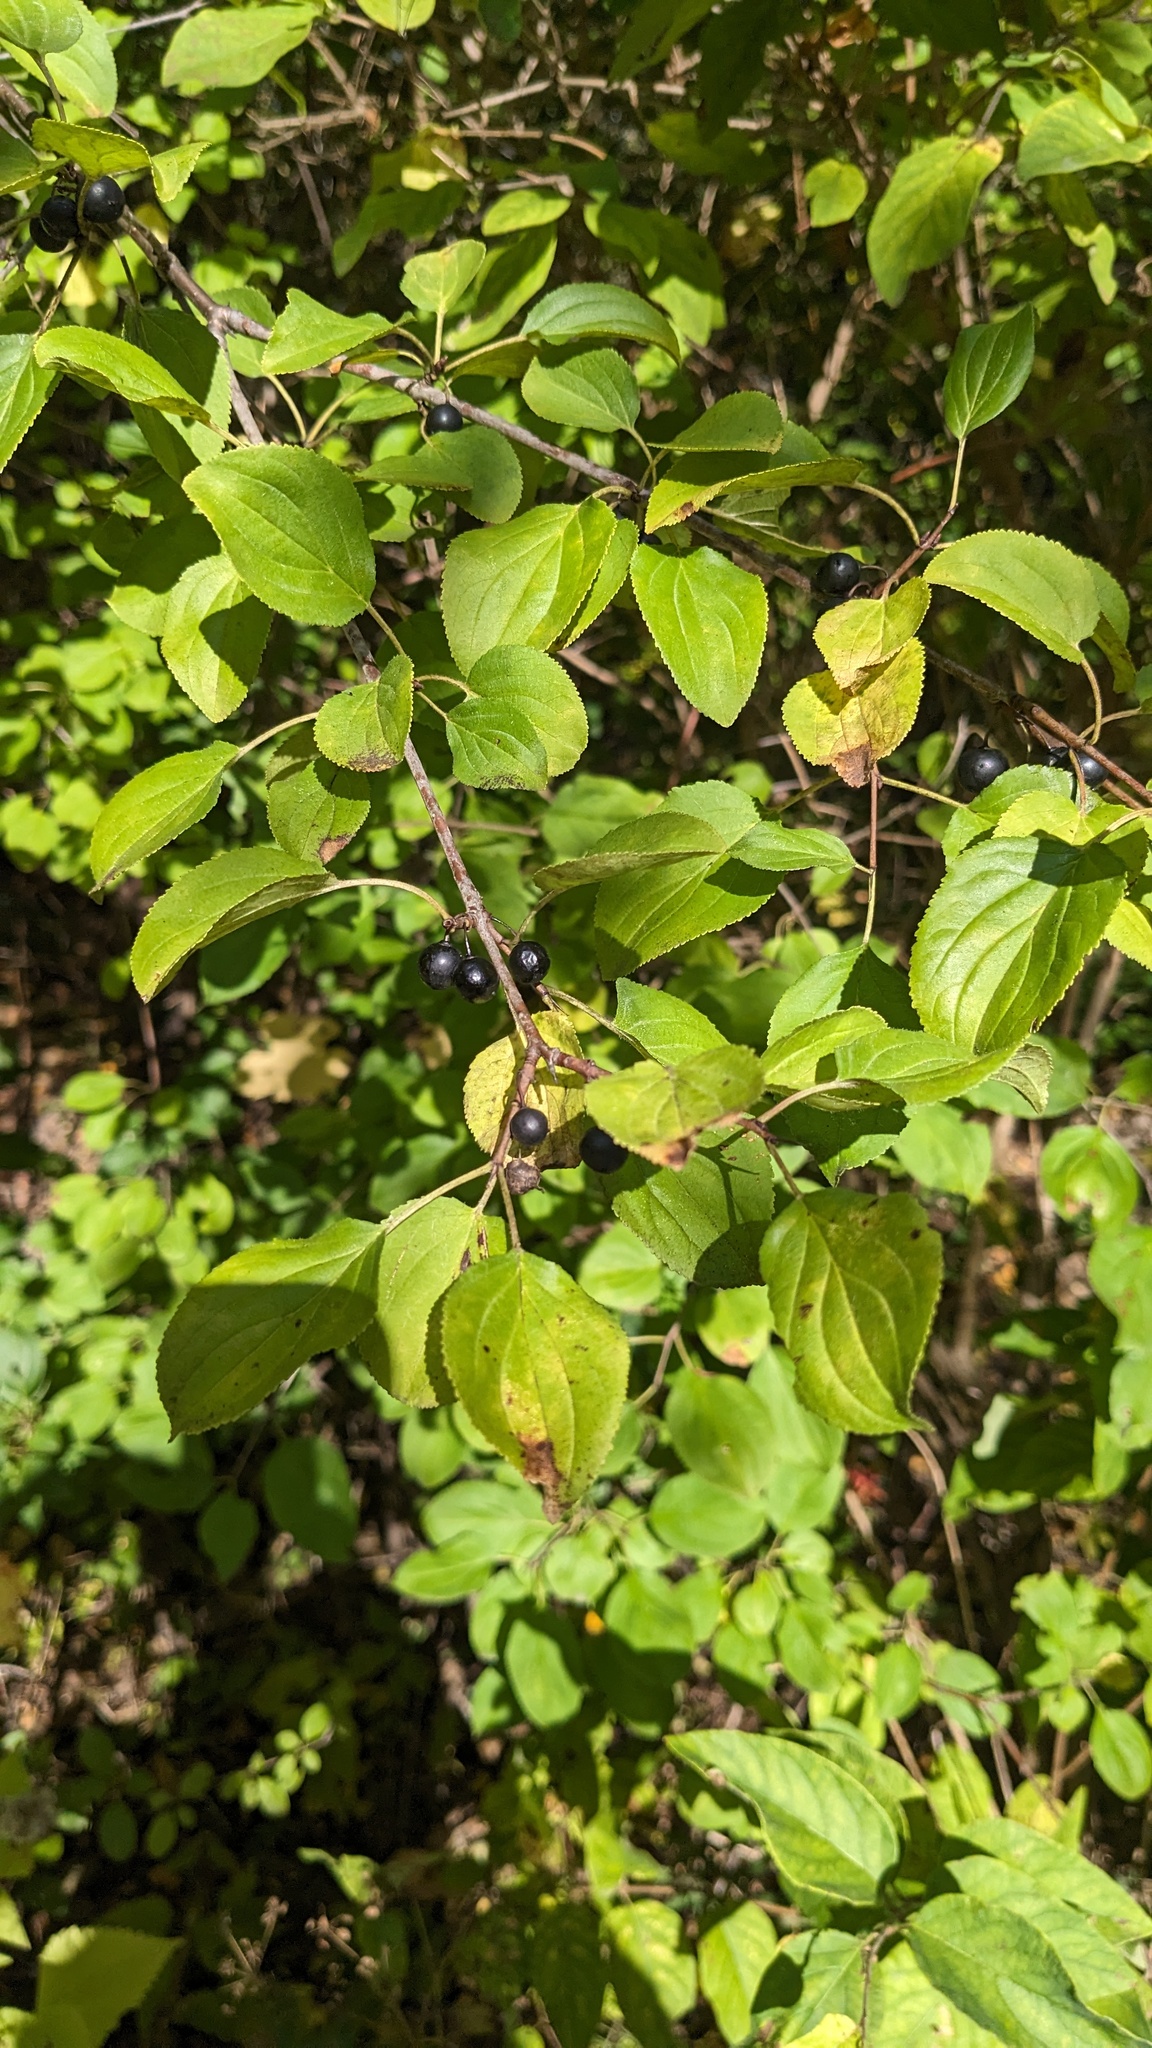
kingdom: Plantae
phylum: Tracheophyta
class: Magnoliopsida
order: Rosales
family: Rhamnaceae
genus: Rhamnus
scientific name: Rhamnus cathartica
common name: Common buckthorn
